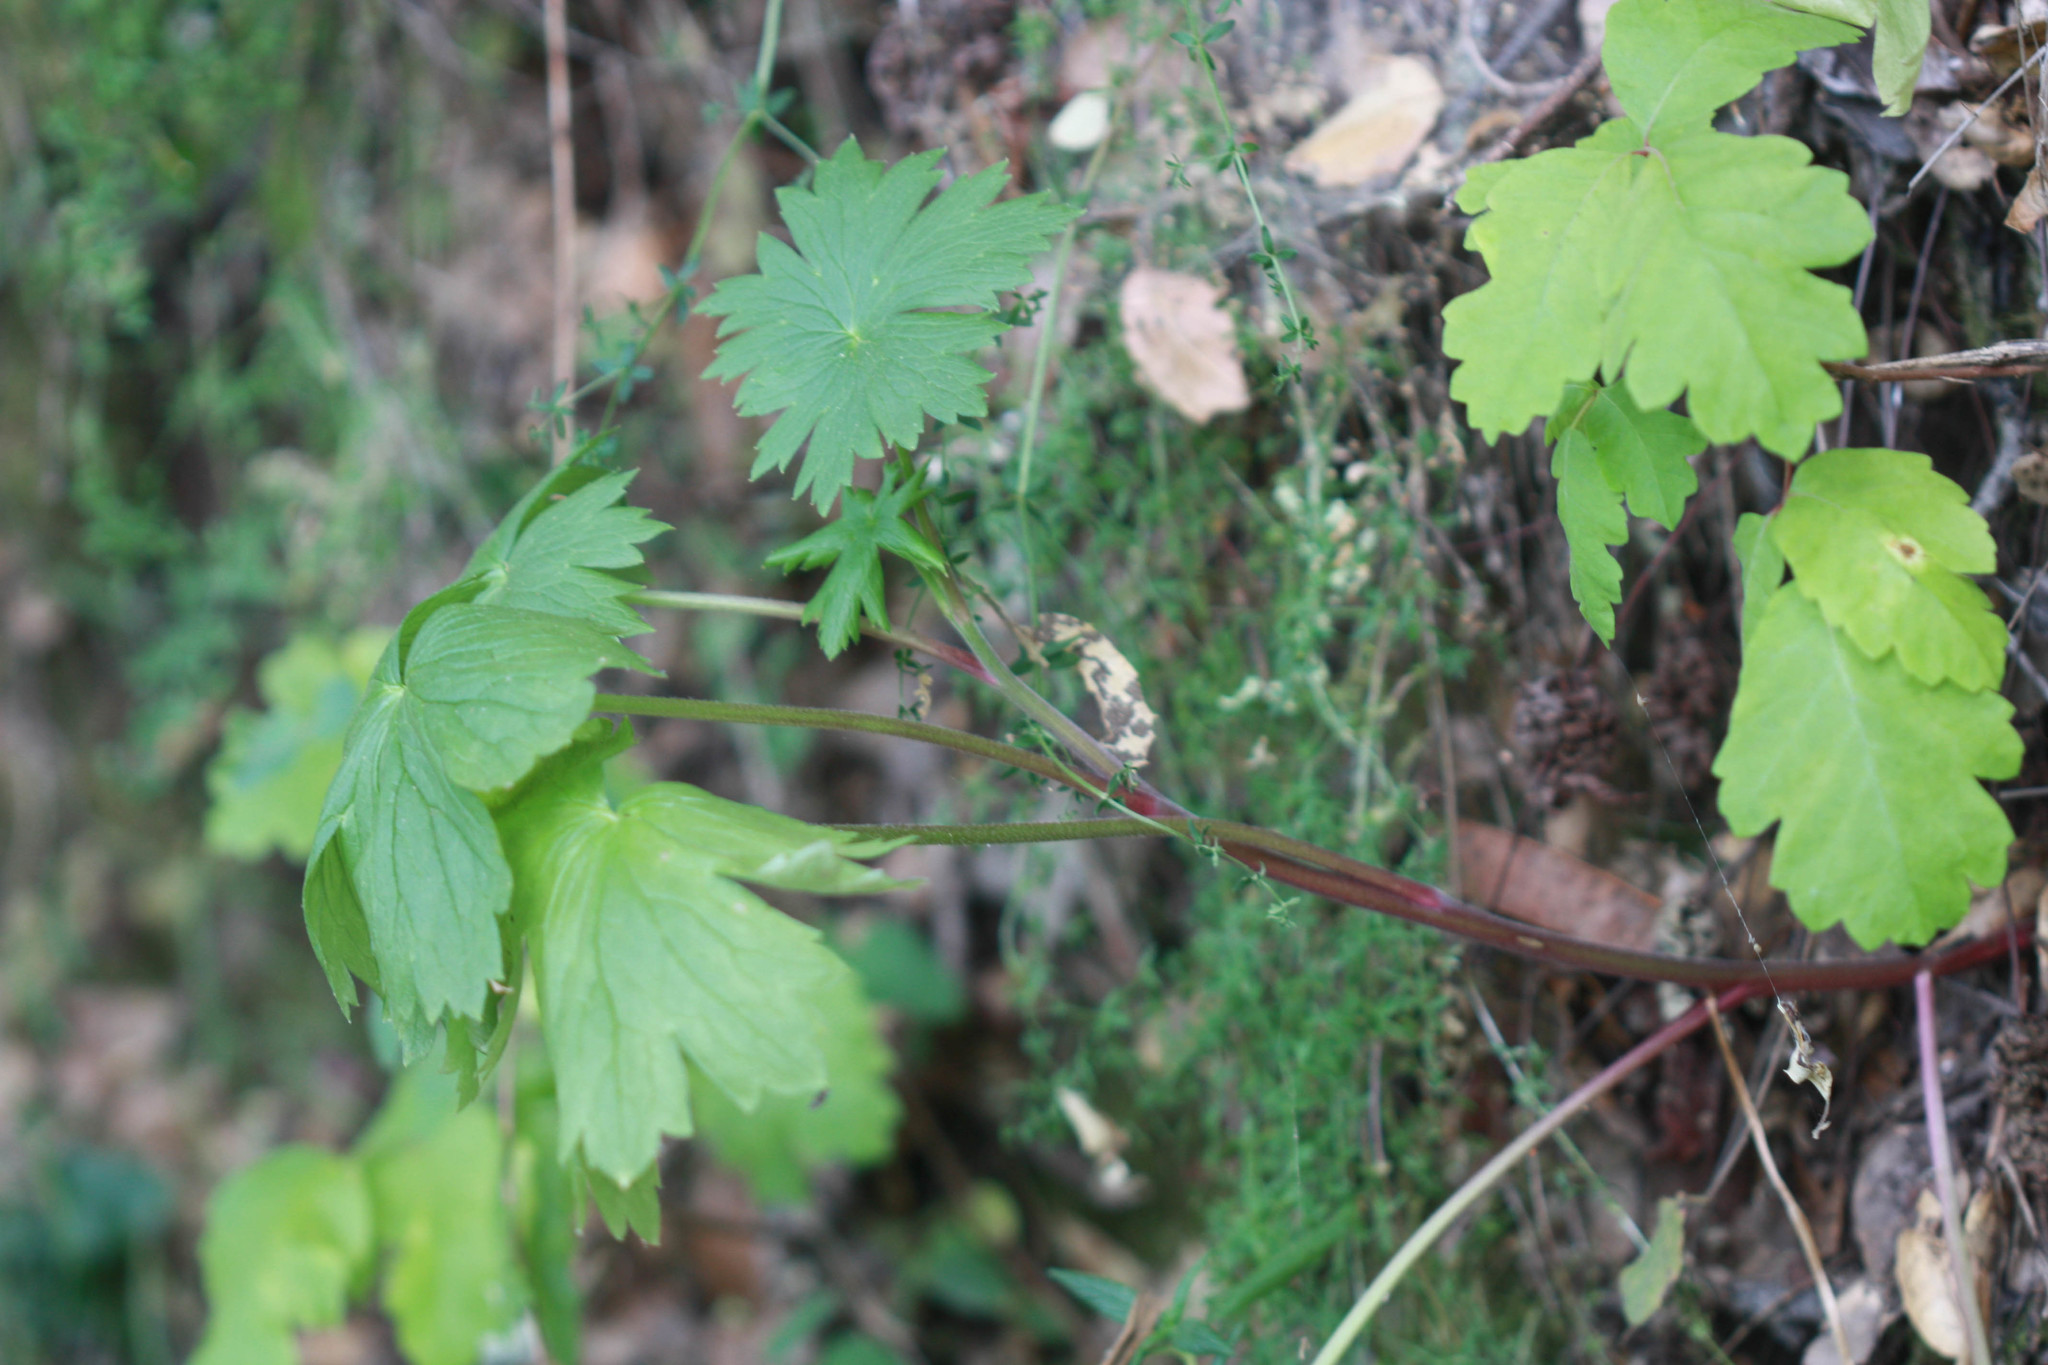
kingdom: Plantae
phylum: Tracheophyta
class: Magnoliopsida
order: Ranunculales
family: Ranunculaceae
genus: Delphinium
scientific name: Delphinium californicum
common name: California larkspur
